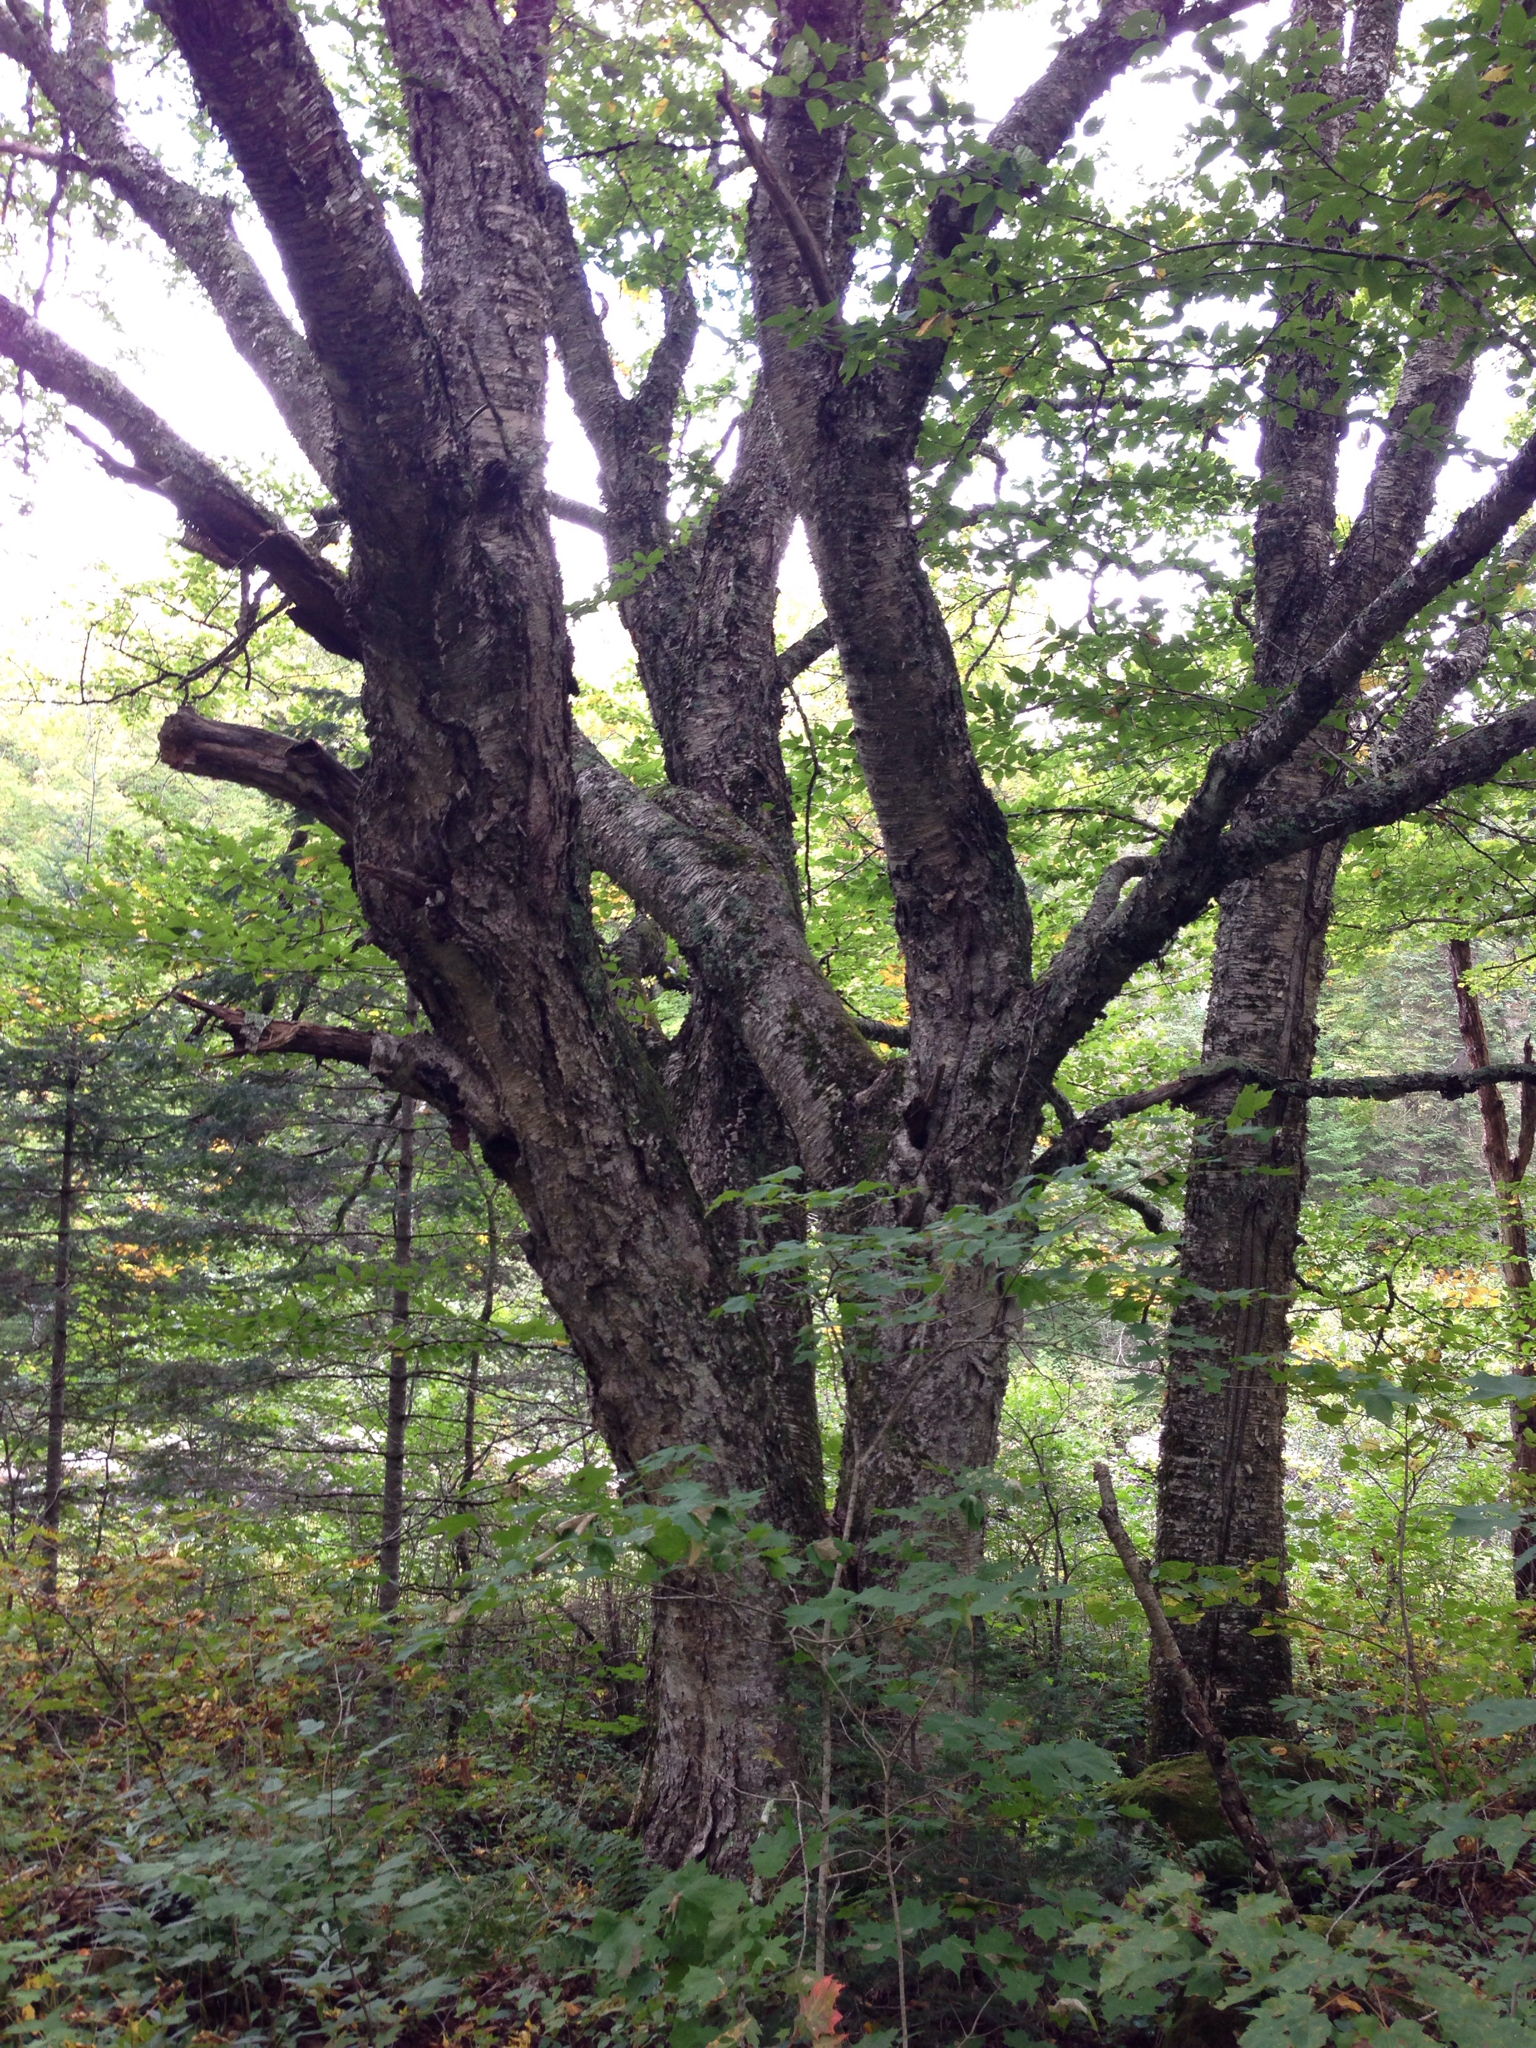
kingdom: Plantae
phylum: Tracheophyta
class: Magnoliopsida
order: Fagales
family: Betulaceae
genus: Betula
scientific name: Betula alleghaniensis
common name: Yellow birch
